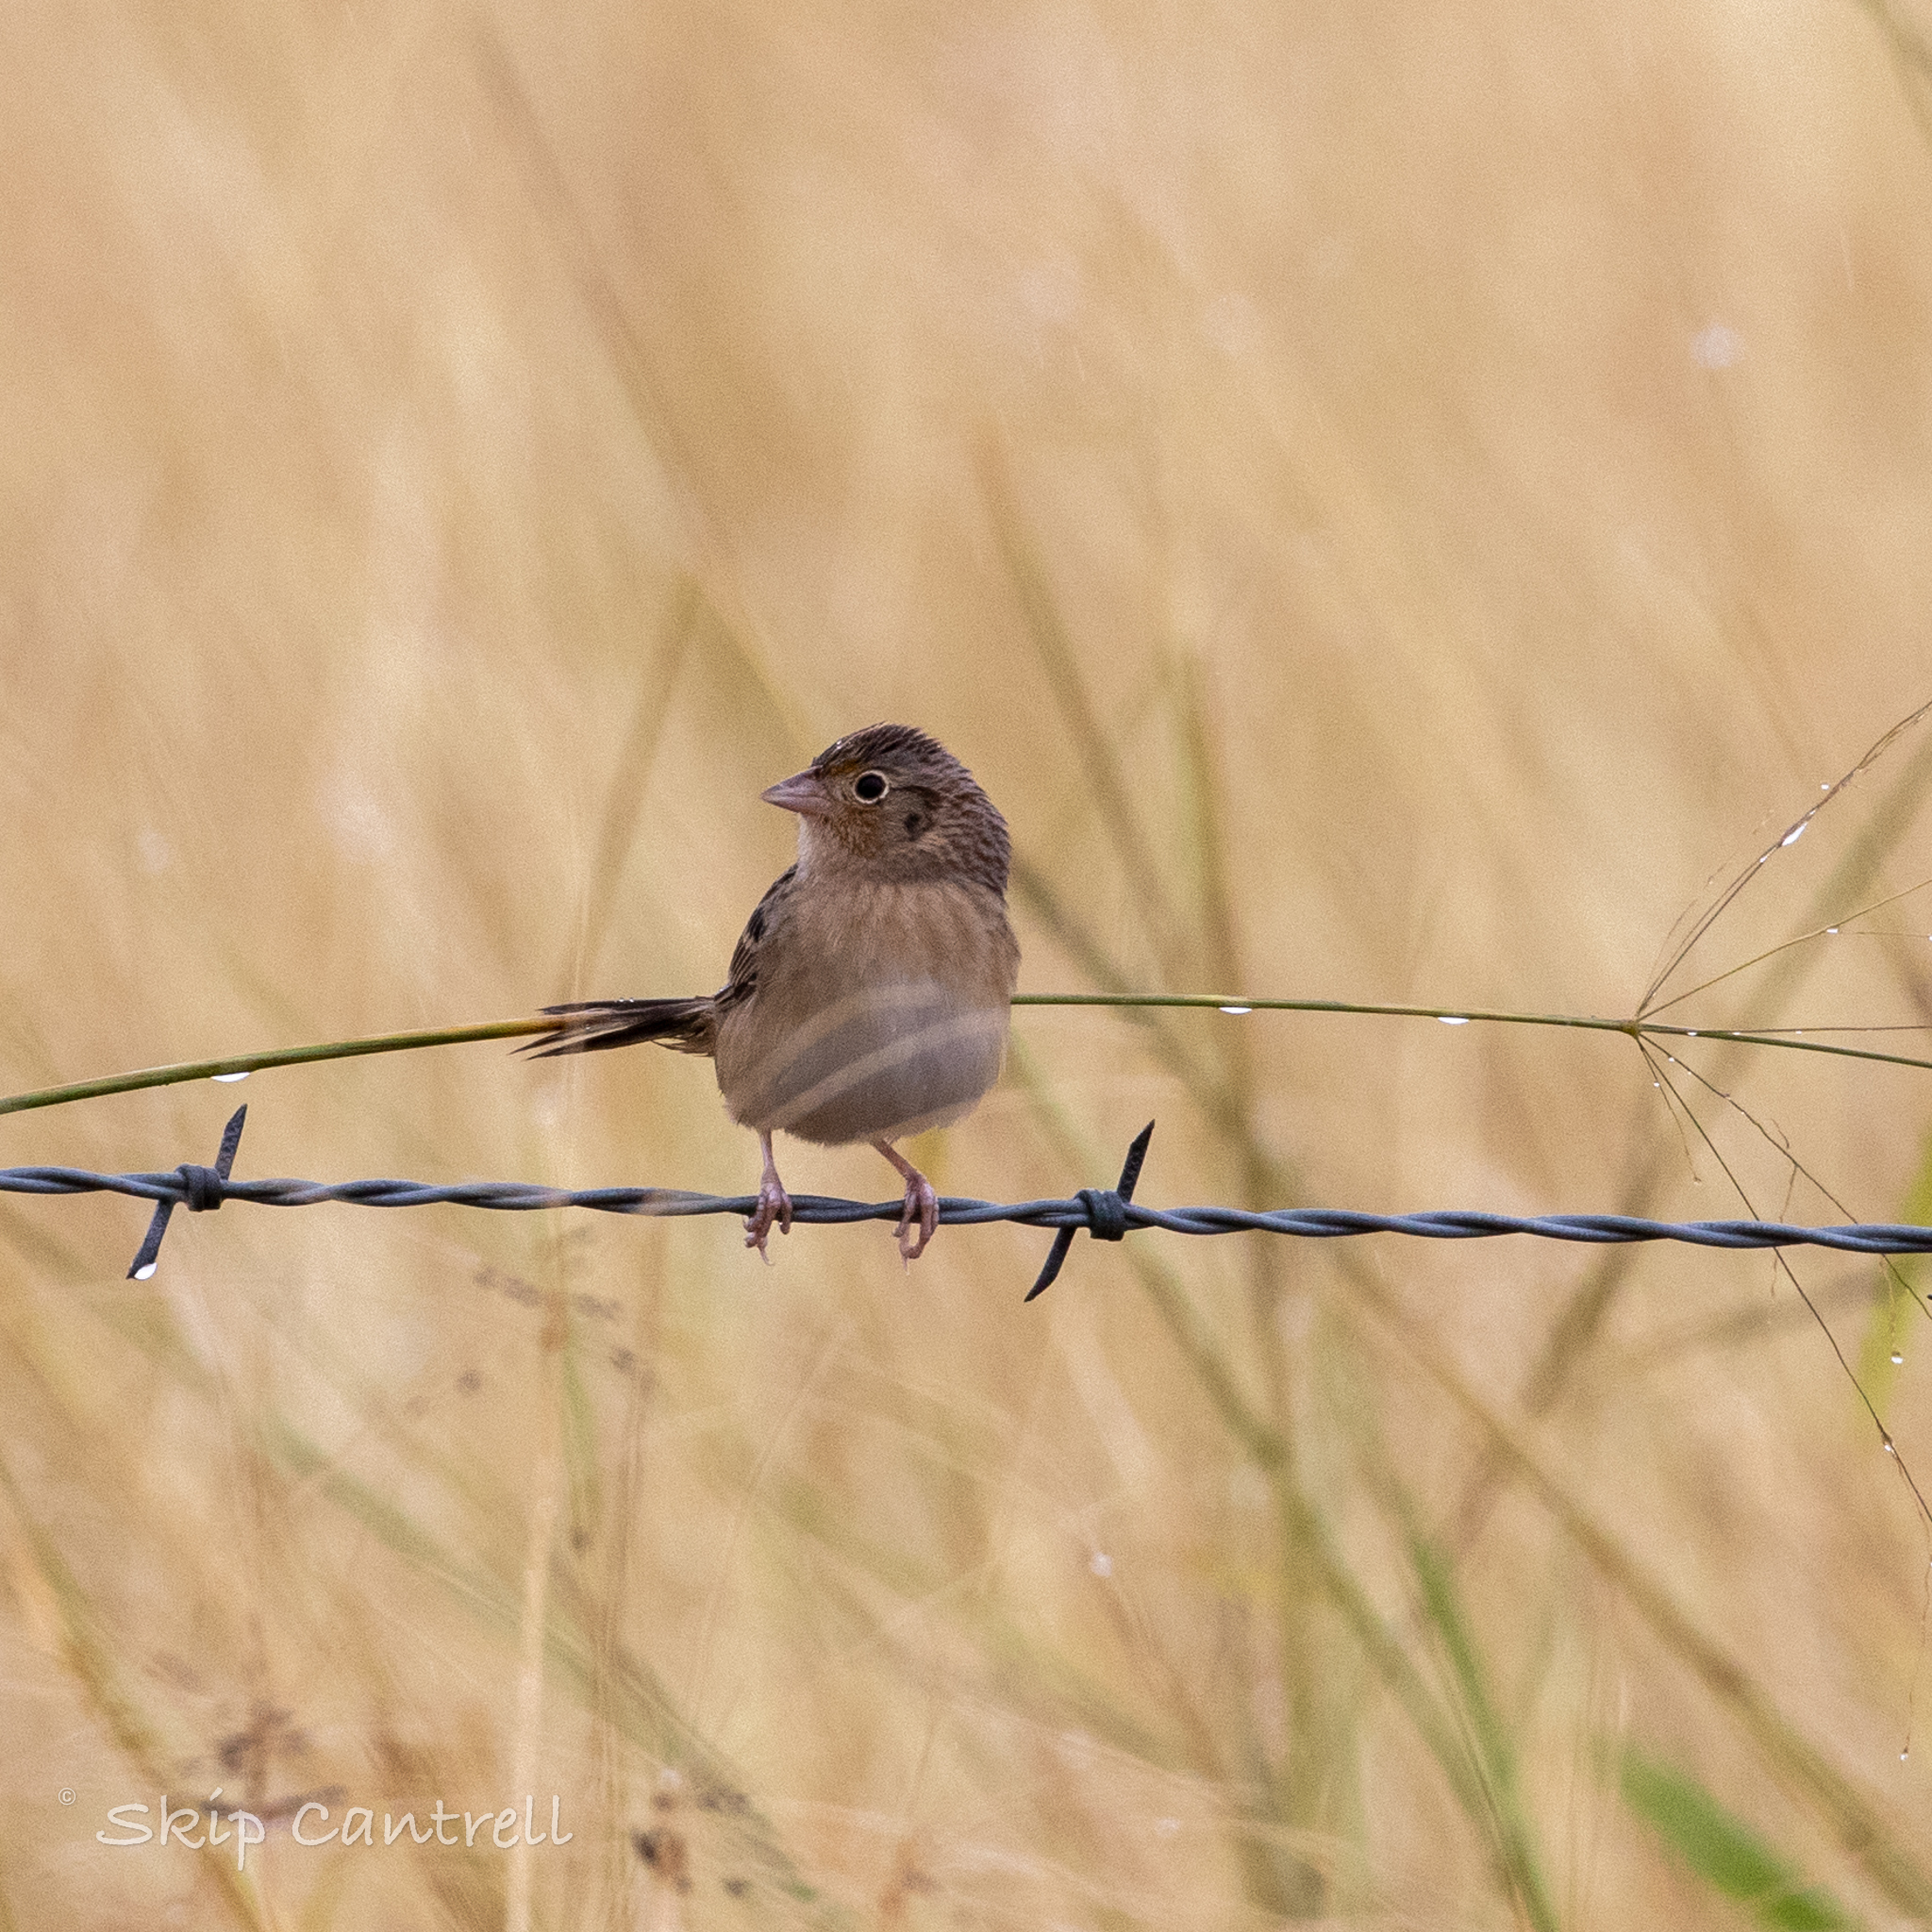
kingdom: Animalia
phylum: Chordata
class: Aves
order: Passeriformes
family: Passerellidae
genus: Ammodramus
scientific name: Ammodramus savannarum
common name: Grasshopper sparrow
